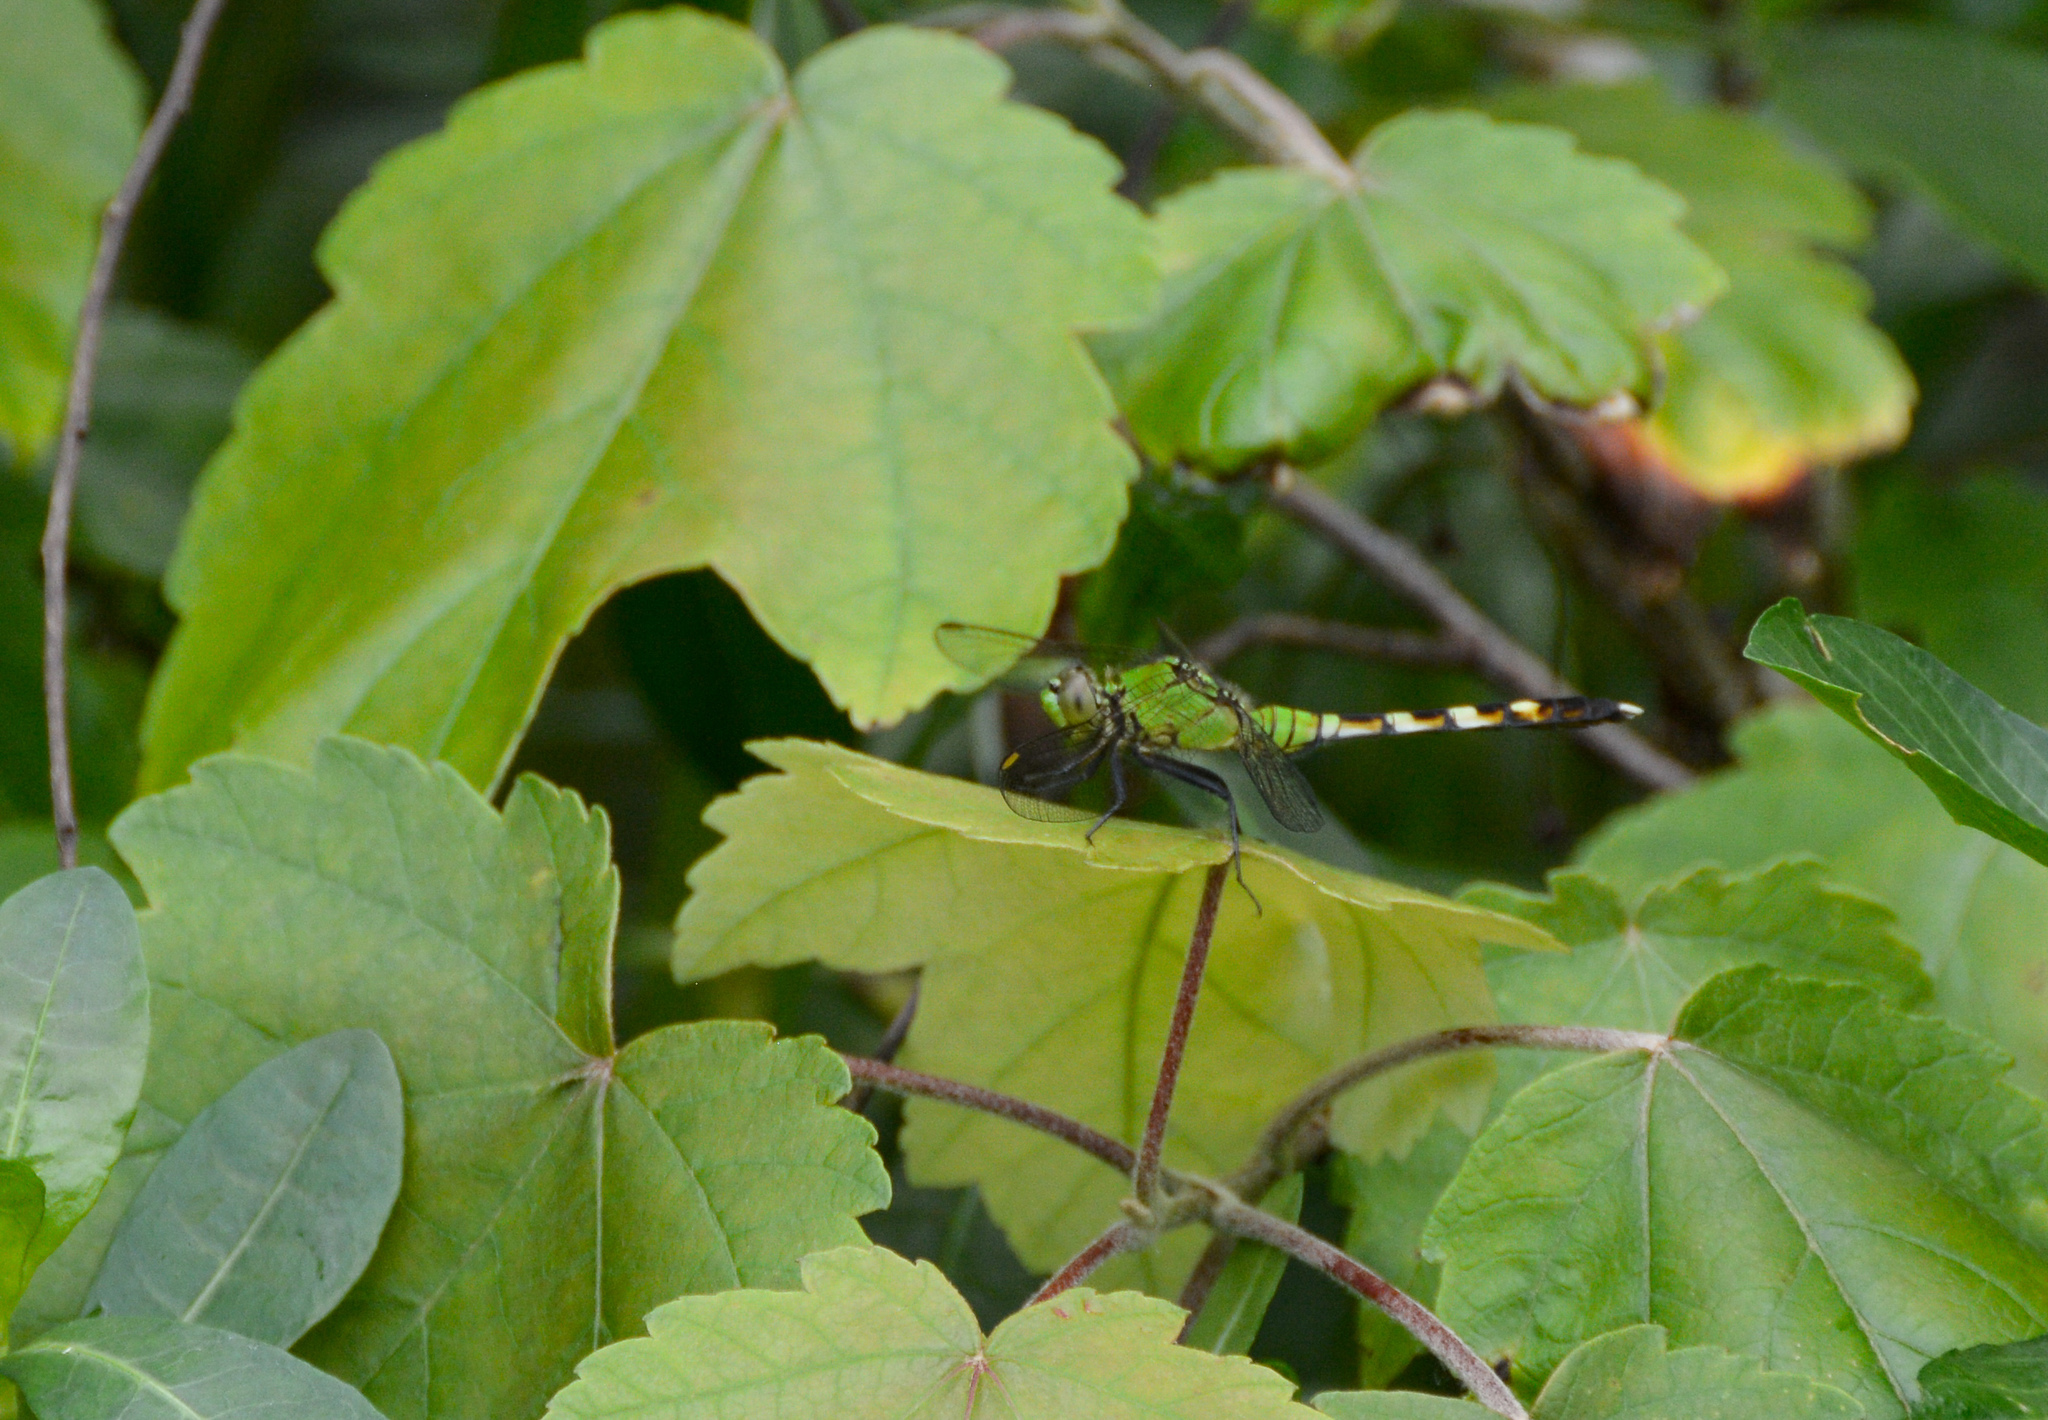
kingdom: Animalia
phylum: Arthropoda
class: Insecta
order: Odonata
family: Libellulidae
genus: Erythemis
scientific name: Erythemis simplicicollis
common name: Eastern pondhawk
